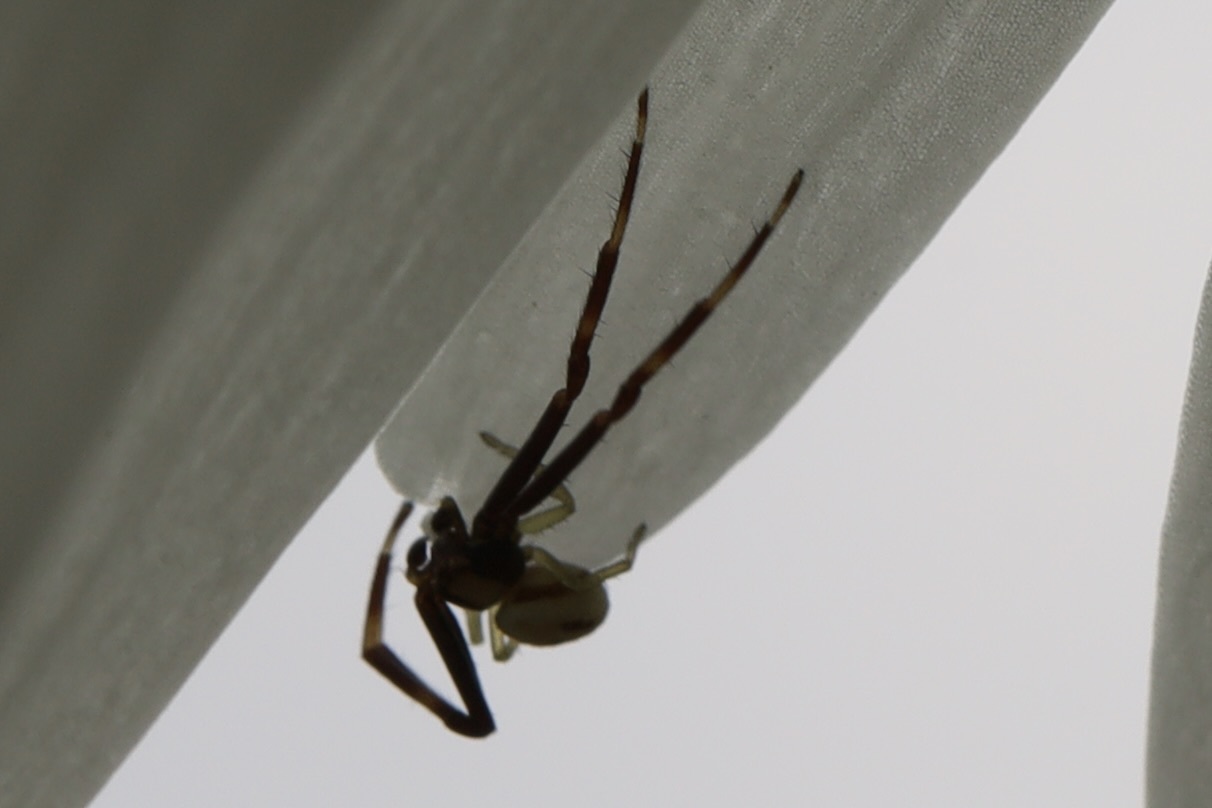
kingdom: Animalia
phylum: Arthropoda
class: Arachnida
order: Araneae
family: Thomisidae
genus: Misumena
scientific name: Misumena vatia
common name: Goldenrod crab spider
